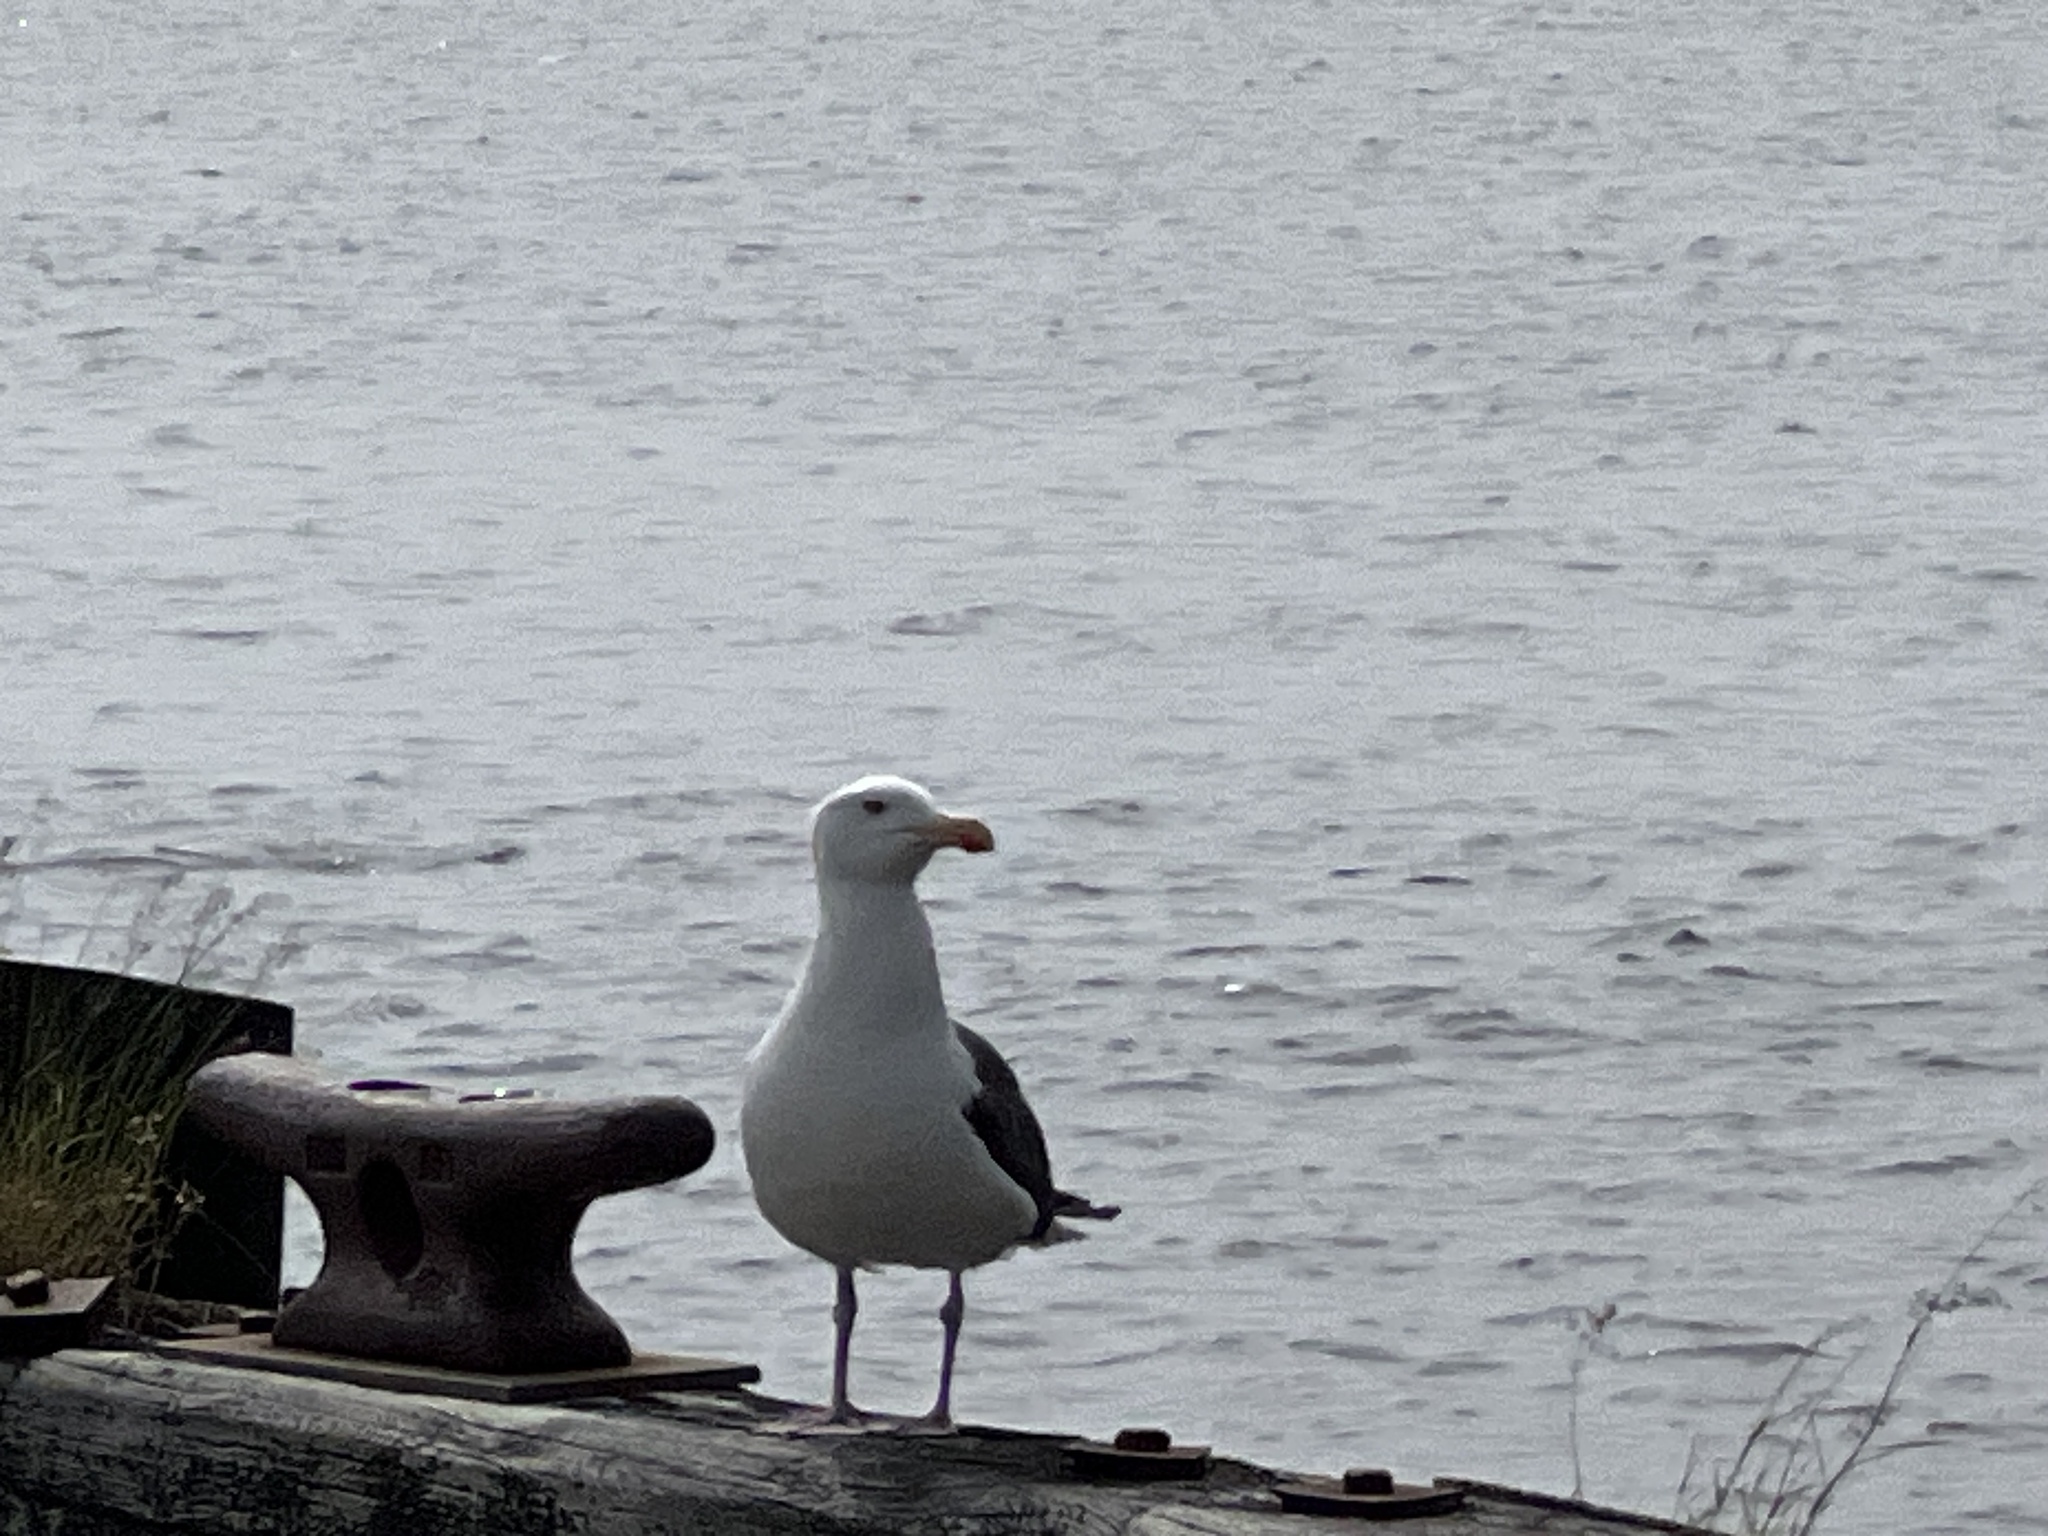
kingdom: Animalia
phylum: Chordata
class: Aves
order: Charadriiformes
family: Laridae
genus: Larus
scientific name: Larus marinus
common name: Great black-backed gull
